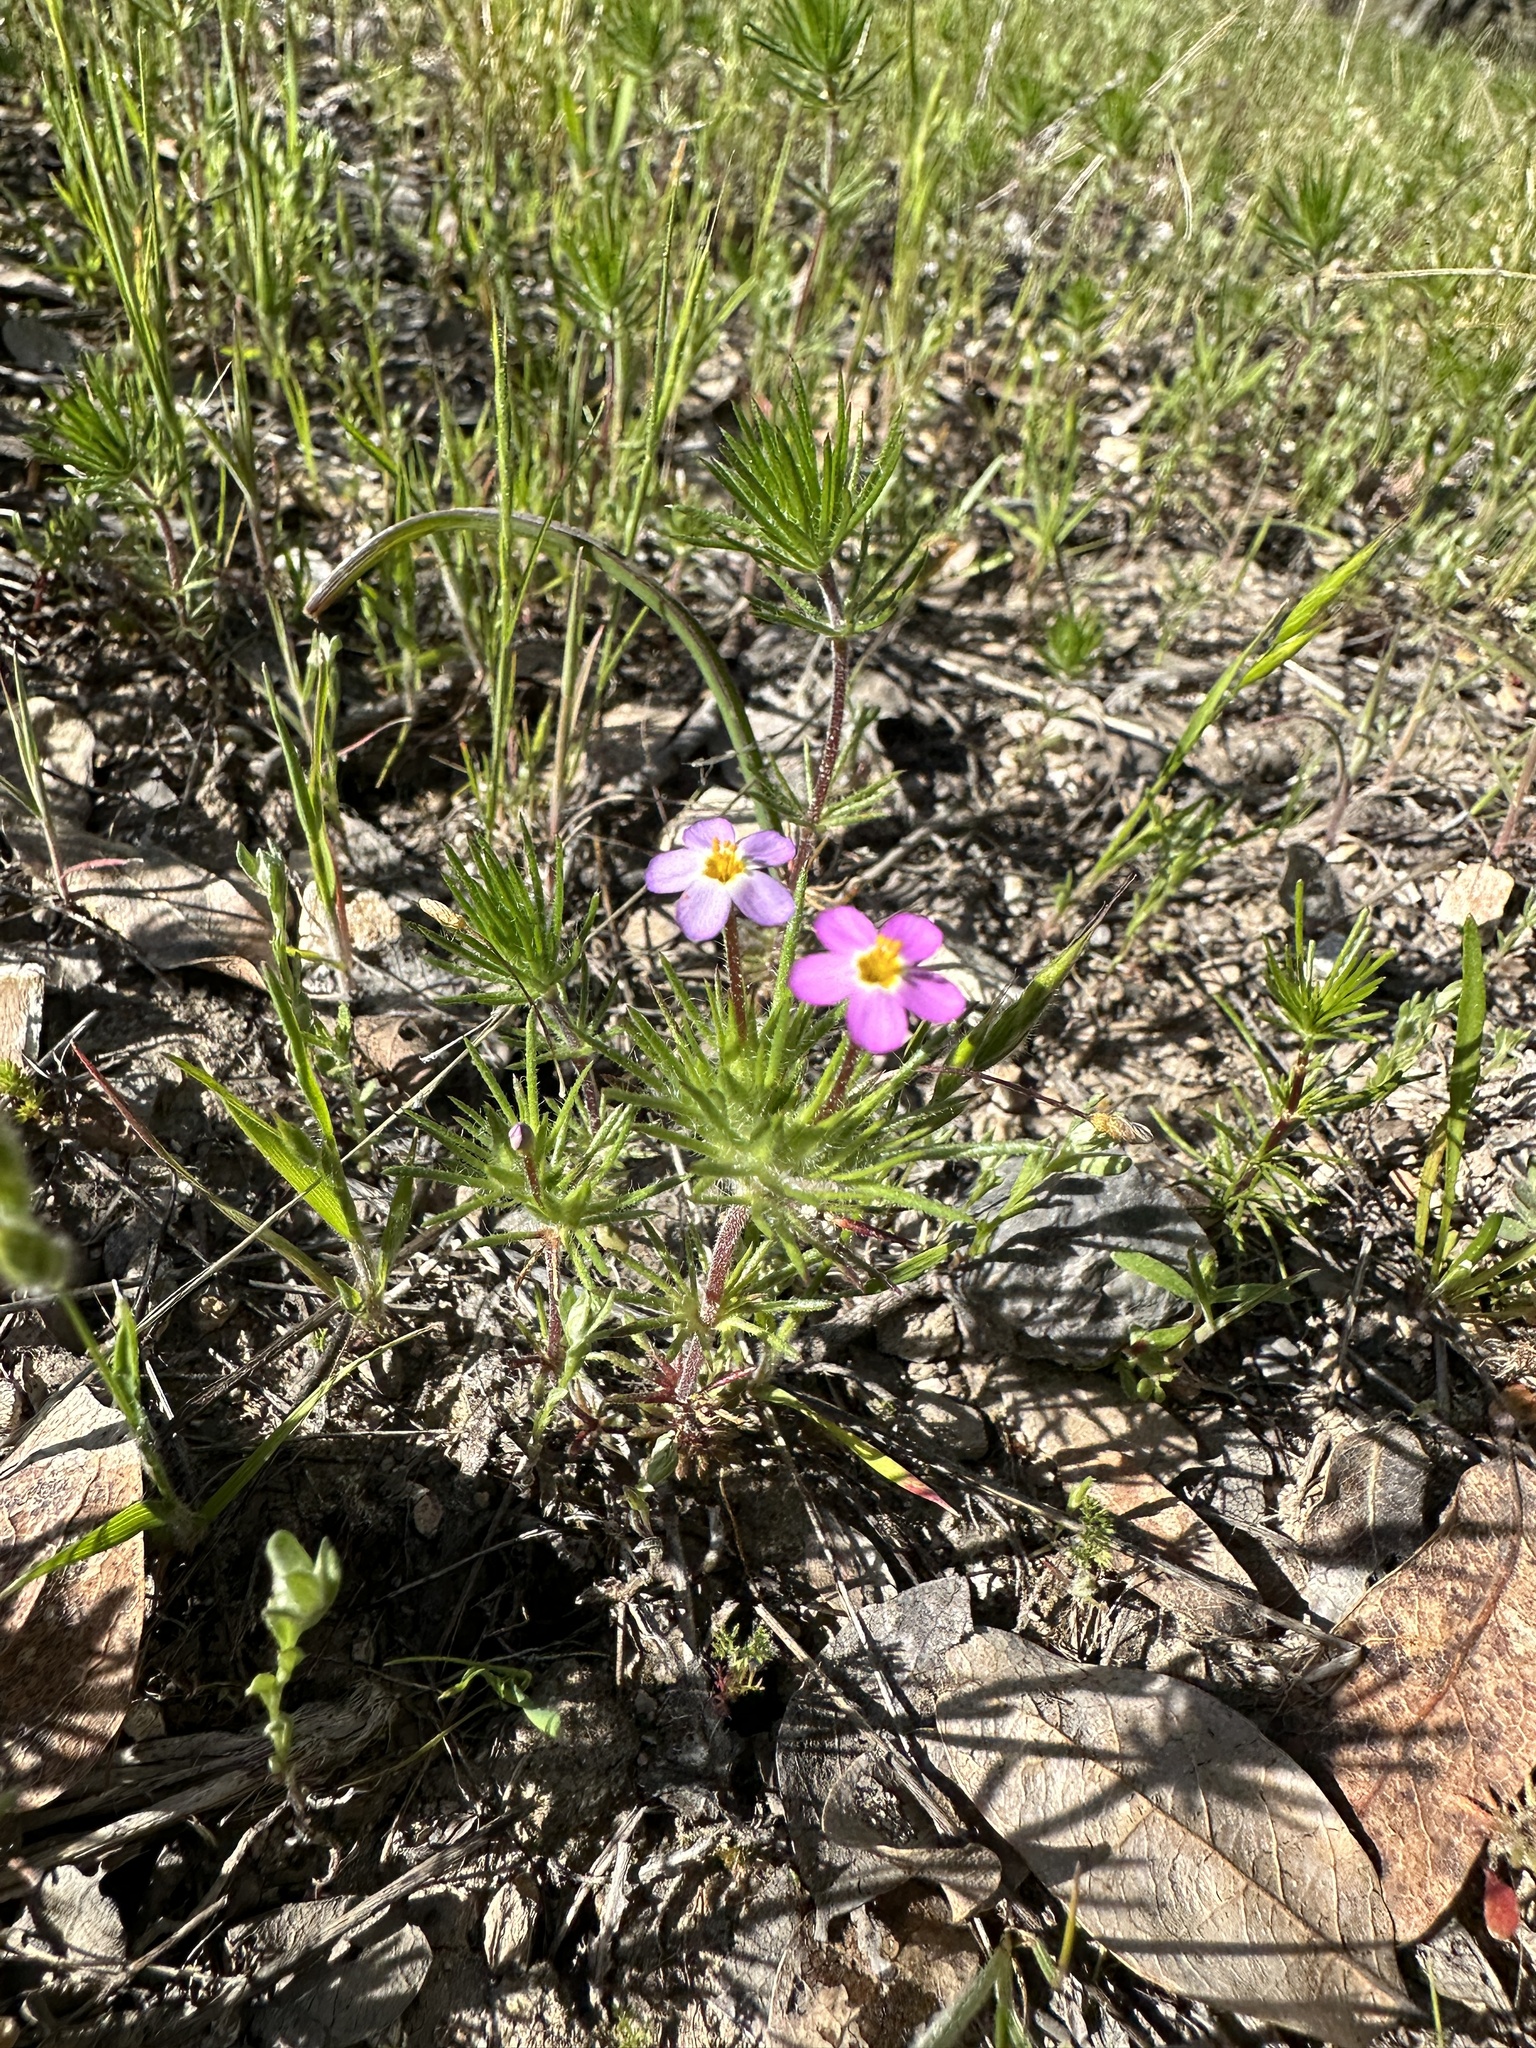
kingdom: Plantae
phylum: Tracheophyta
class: Magnoliopsida
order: Ericales
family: Polemoniaceae
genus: Leptosiphon
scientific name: Leptosiphon bicolor
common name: True babystars
